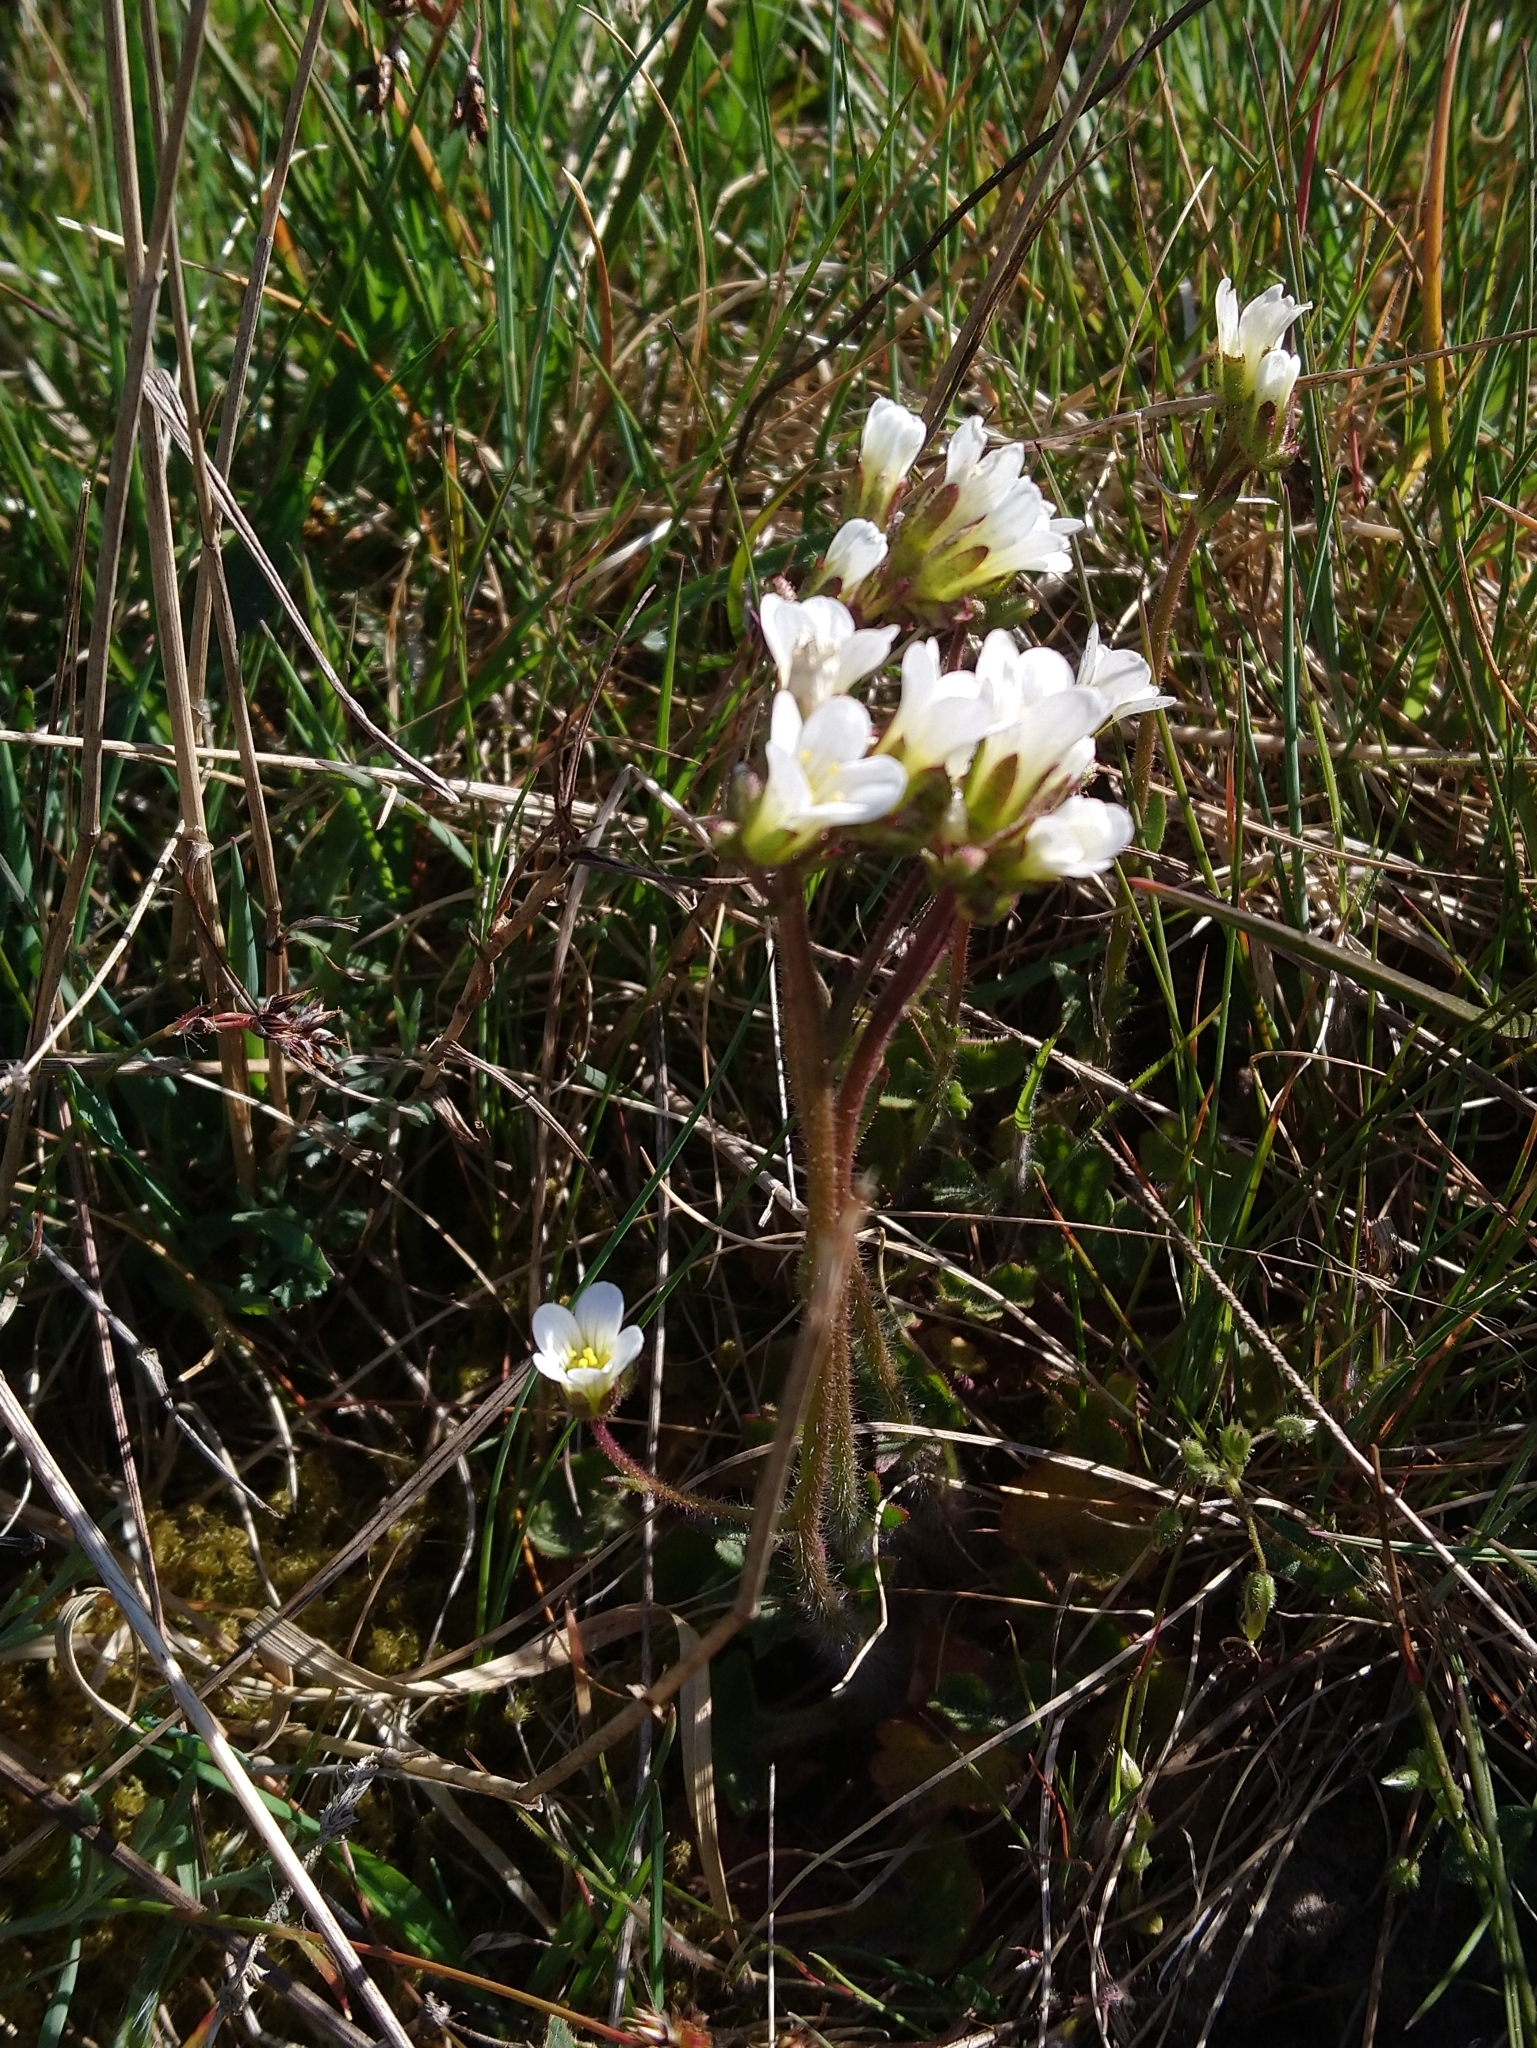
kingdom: Plantae
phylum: Tracheophyta
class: Magnoliopsida
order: Saxifragales
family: Saxifragaceae
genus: Saxifraga
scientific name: Saxifraga granulata
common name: Meadow saxifrage
